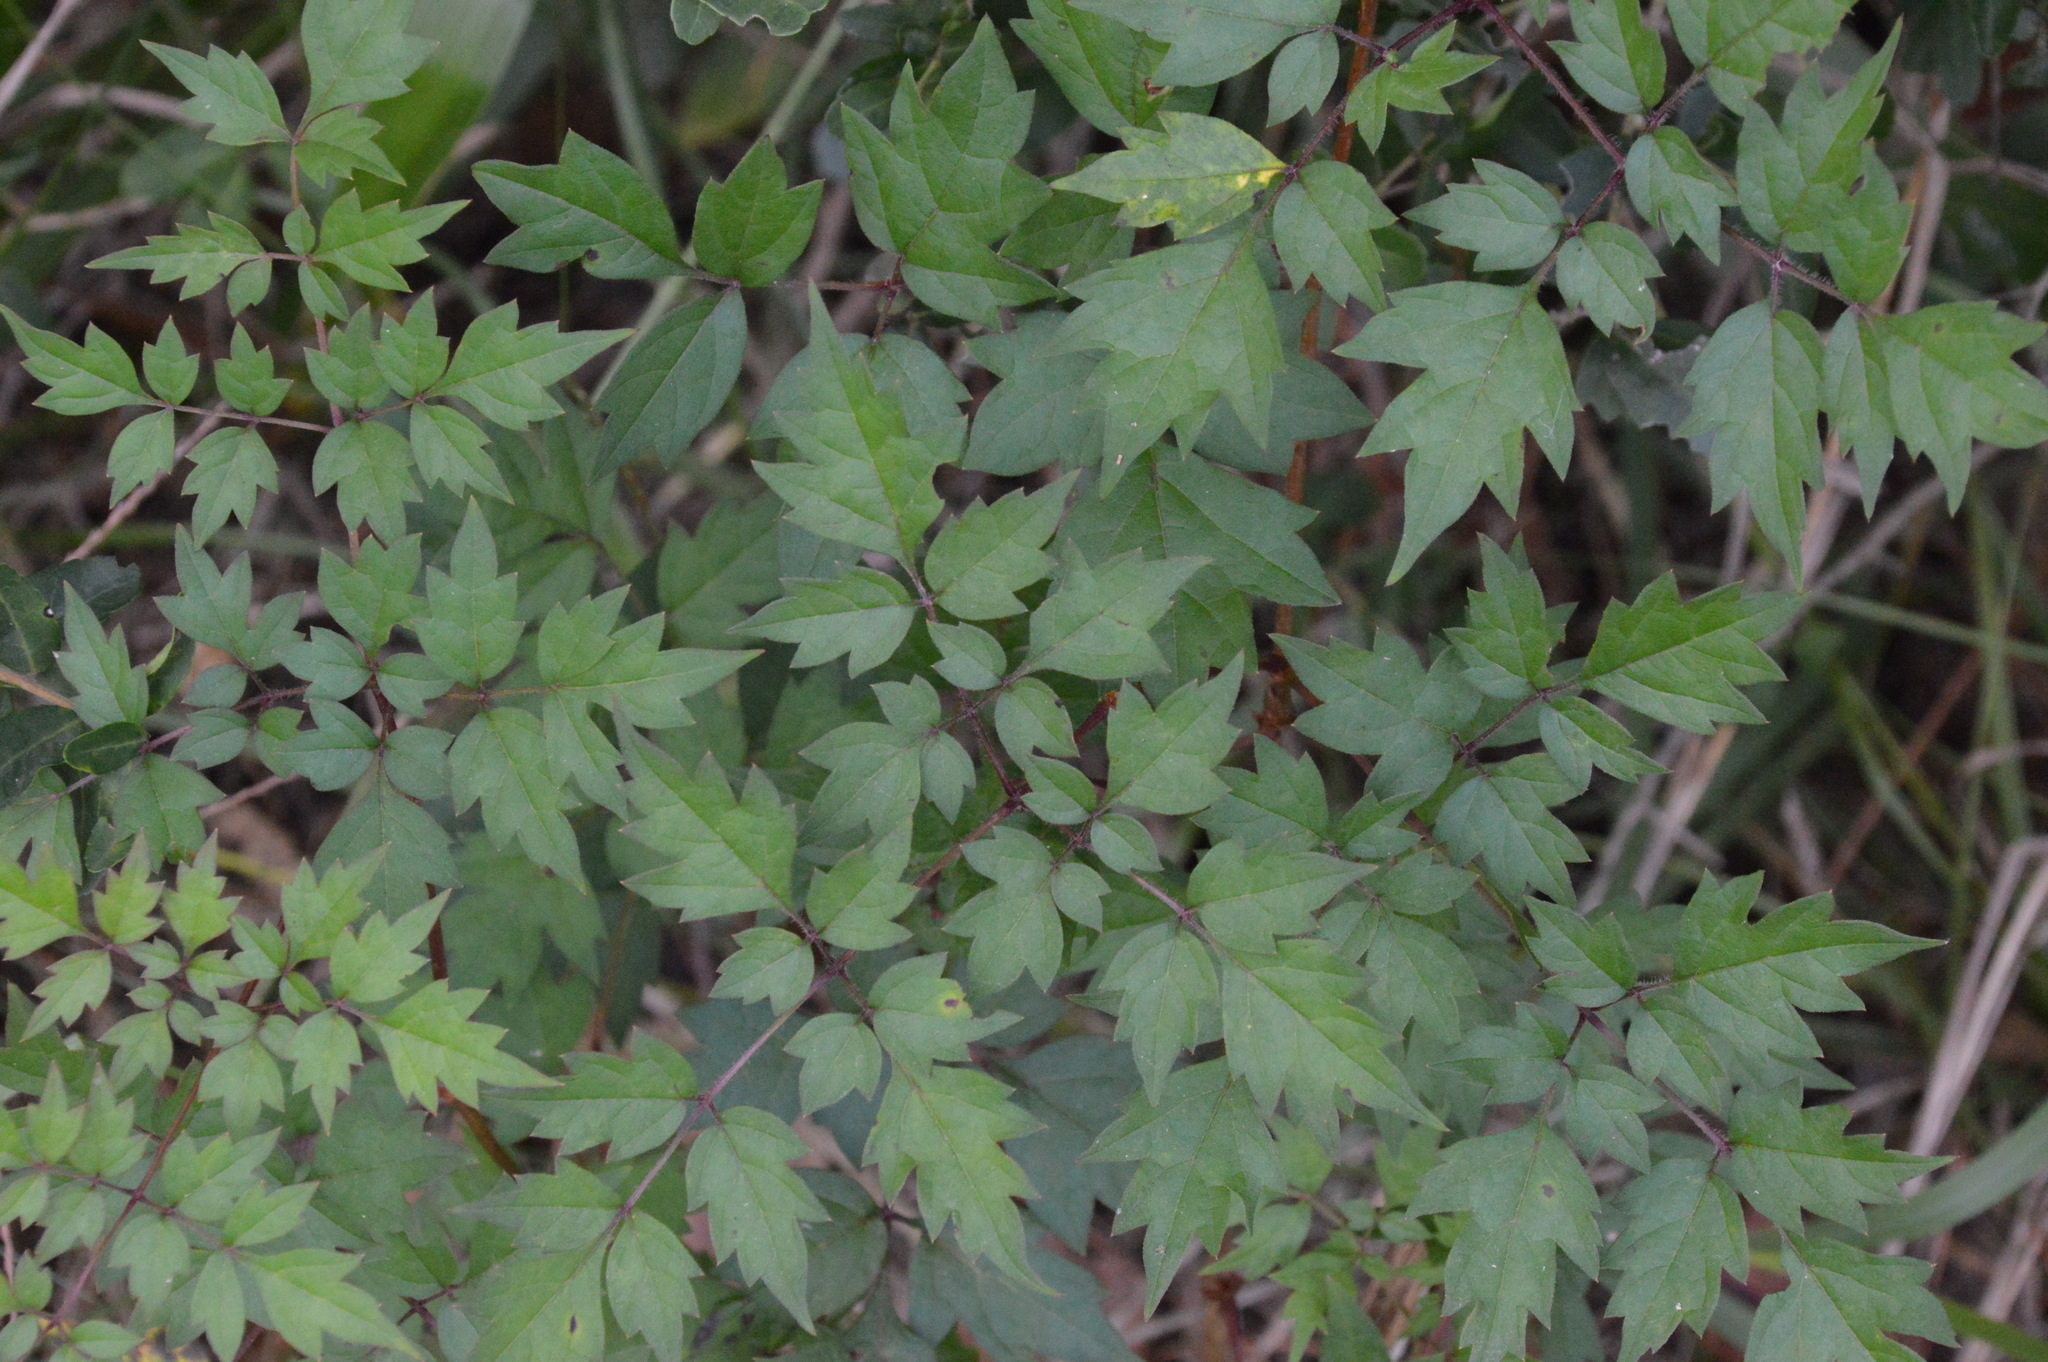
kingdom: Plantae
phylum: Tracheophyta
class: Magnoliopsida
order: Vitales
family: Vitaceae
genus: Nekemias
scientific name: Nekemias arborea
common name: Peppervine
